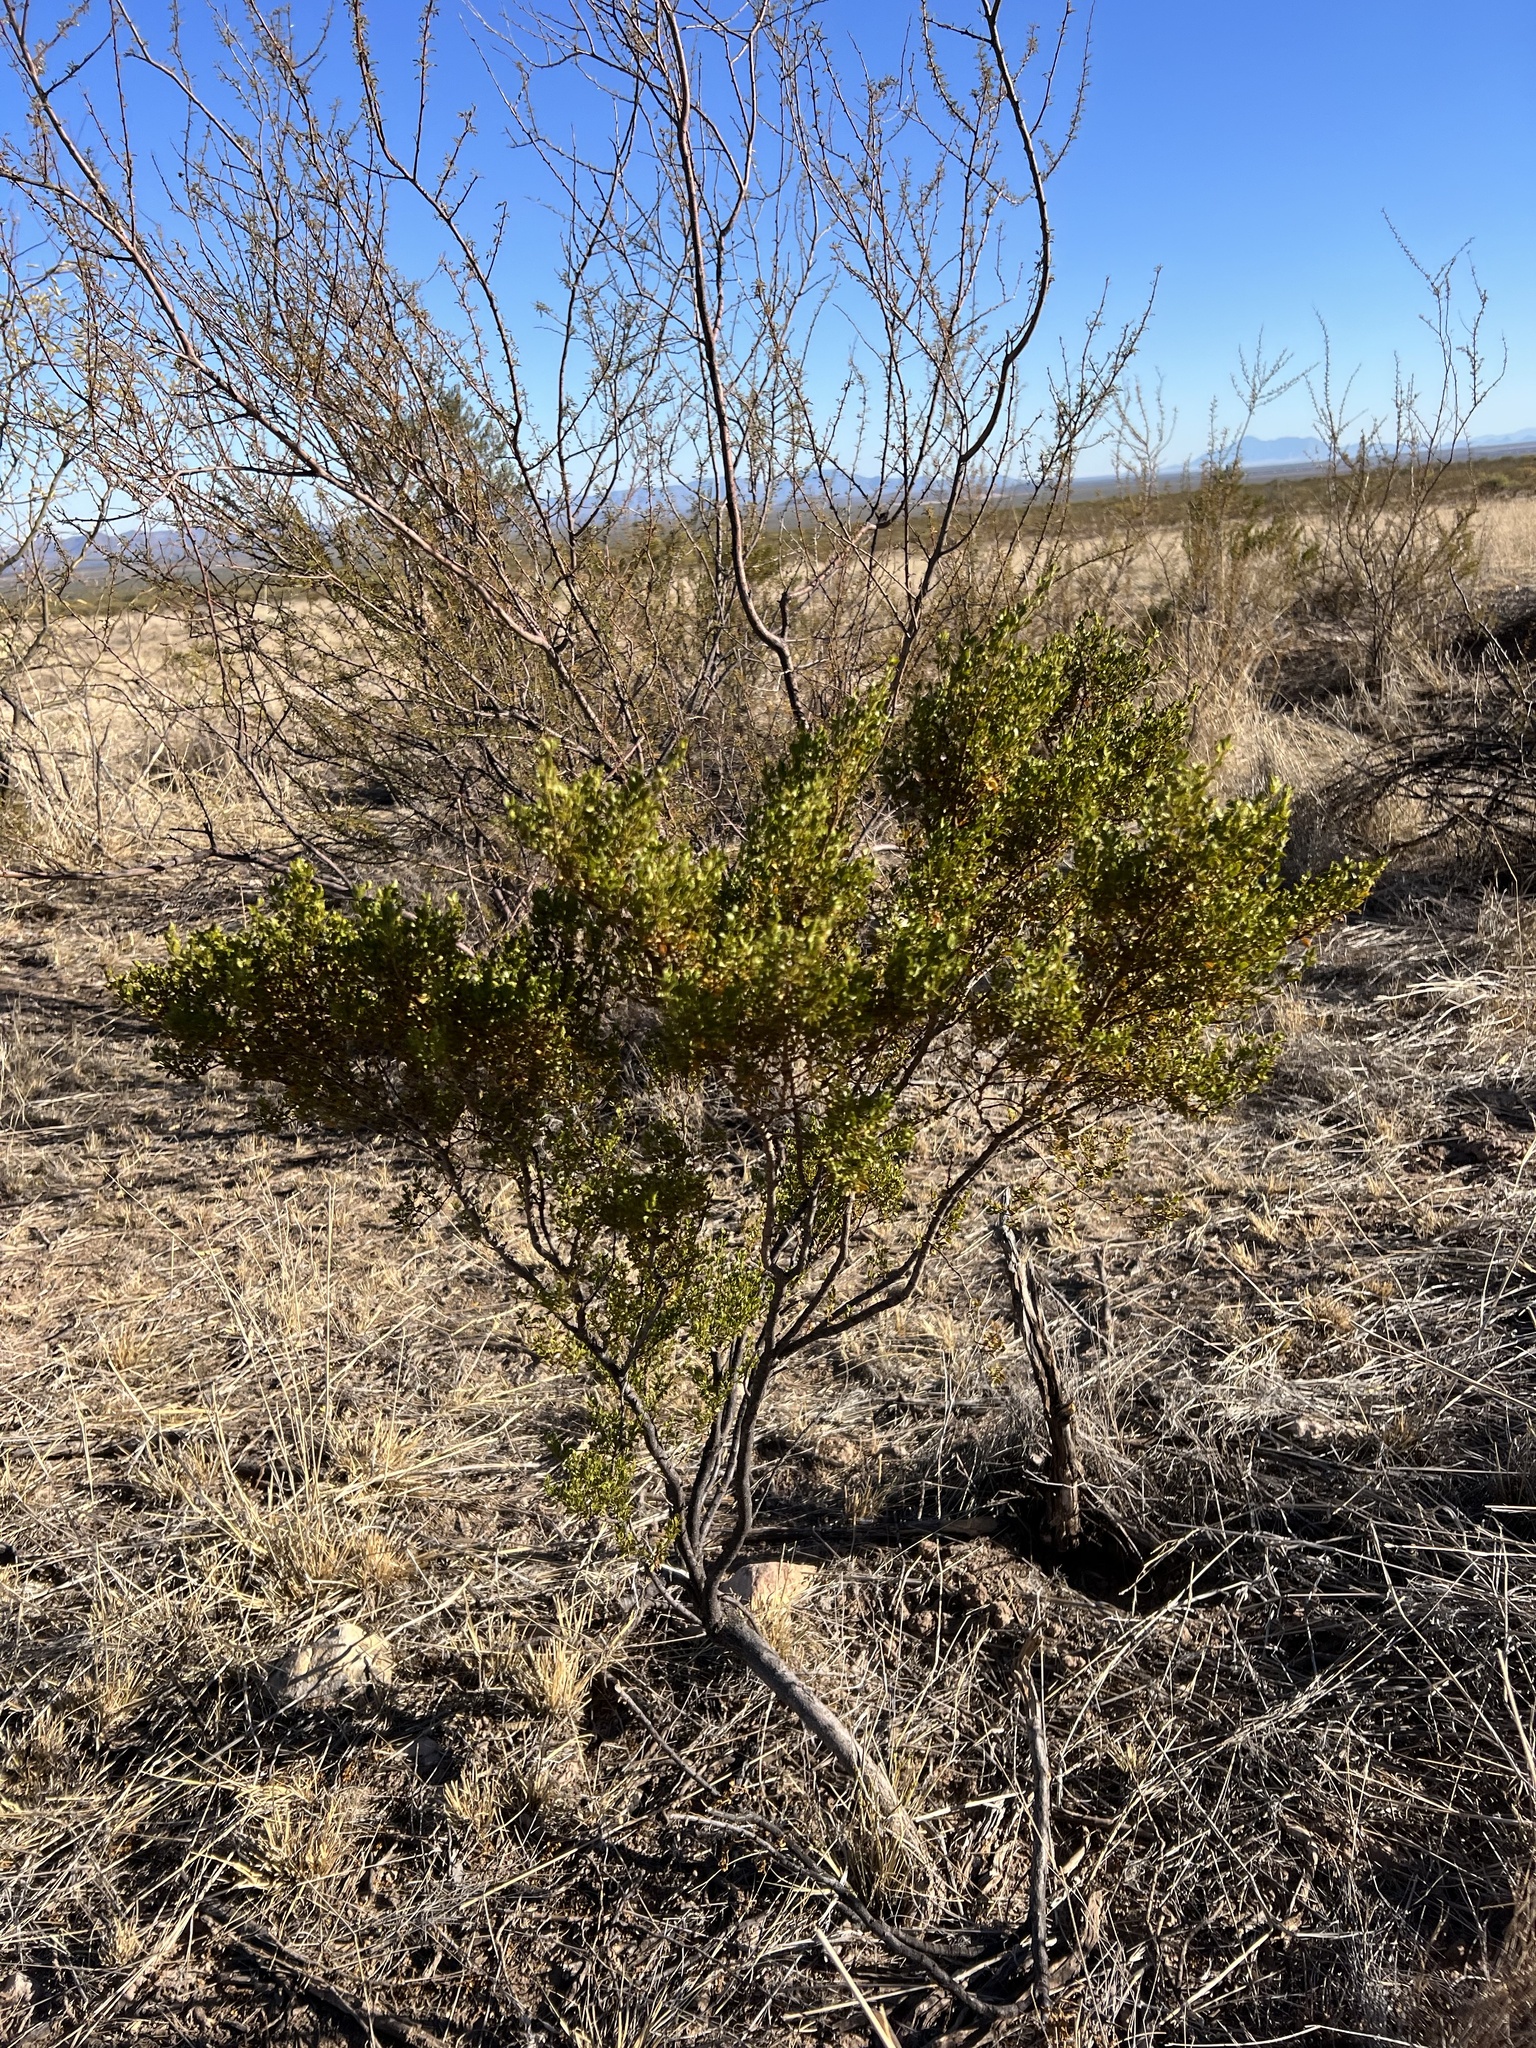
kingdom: Plantae
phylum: Tracheophyta
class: Magnoliopsida
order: Zygophyllales
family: Zygophyllaceae
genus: Larrea
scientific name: Larrea tridentata
